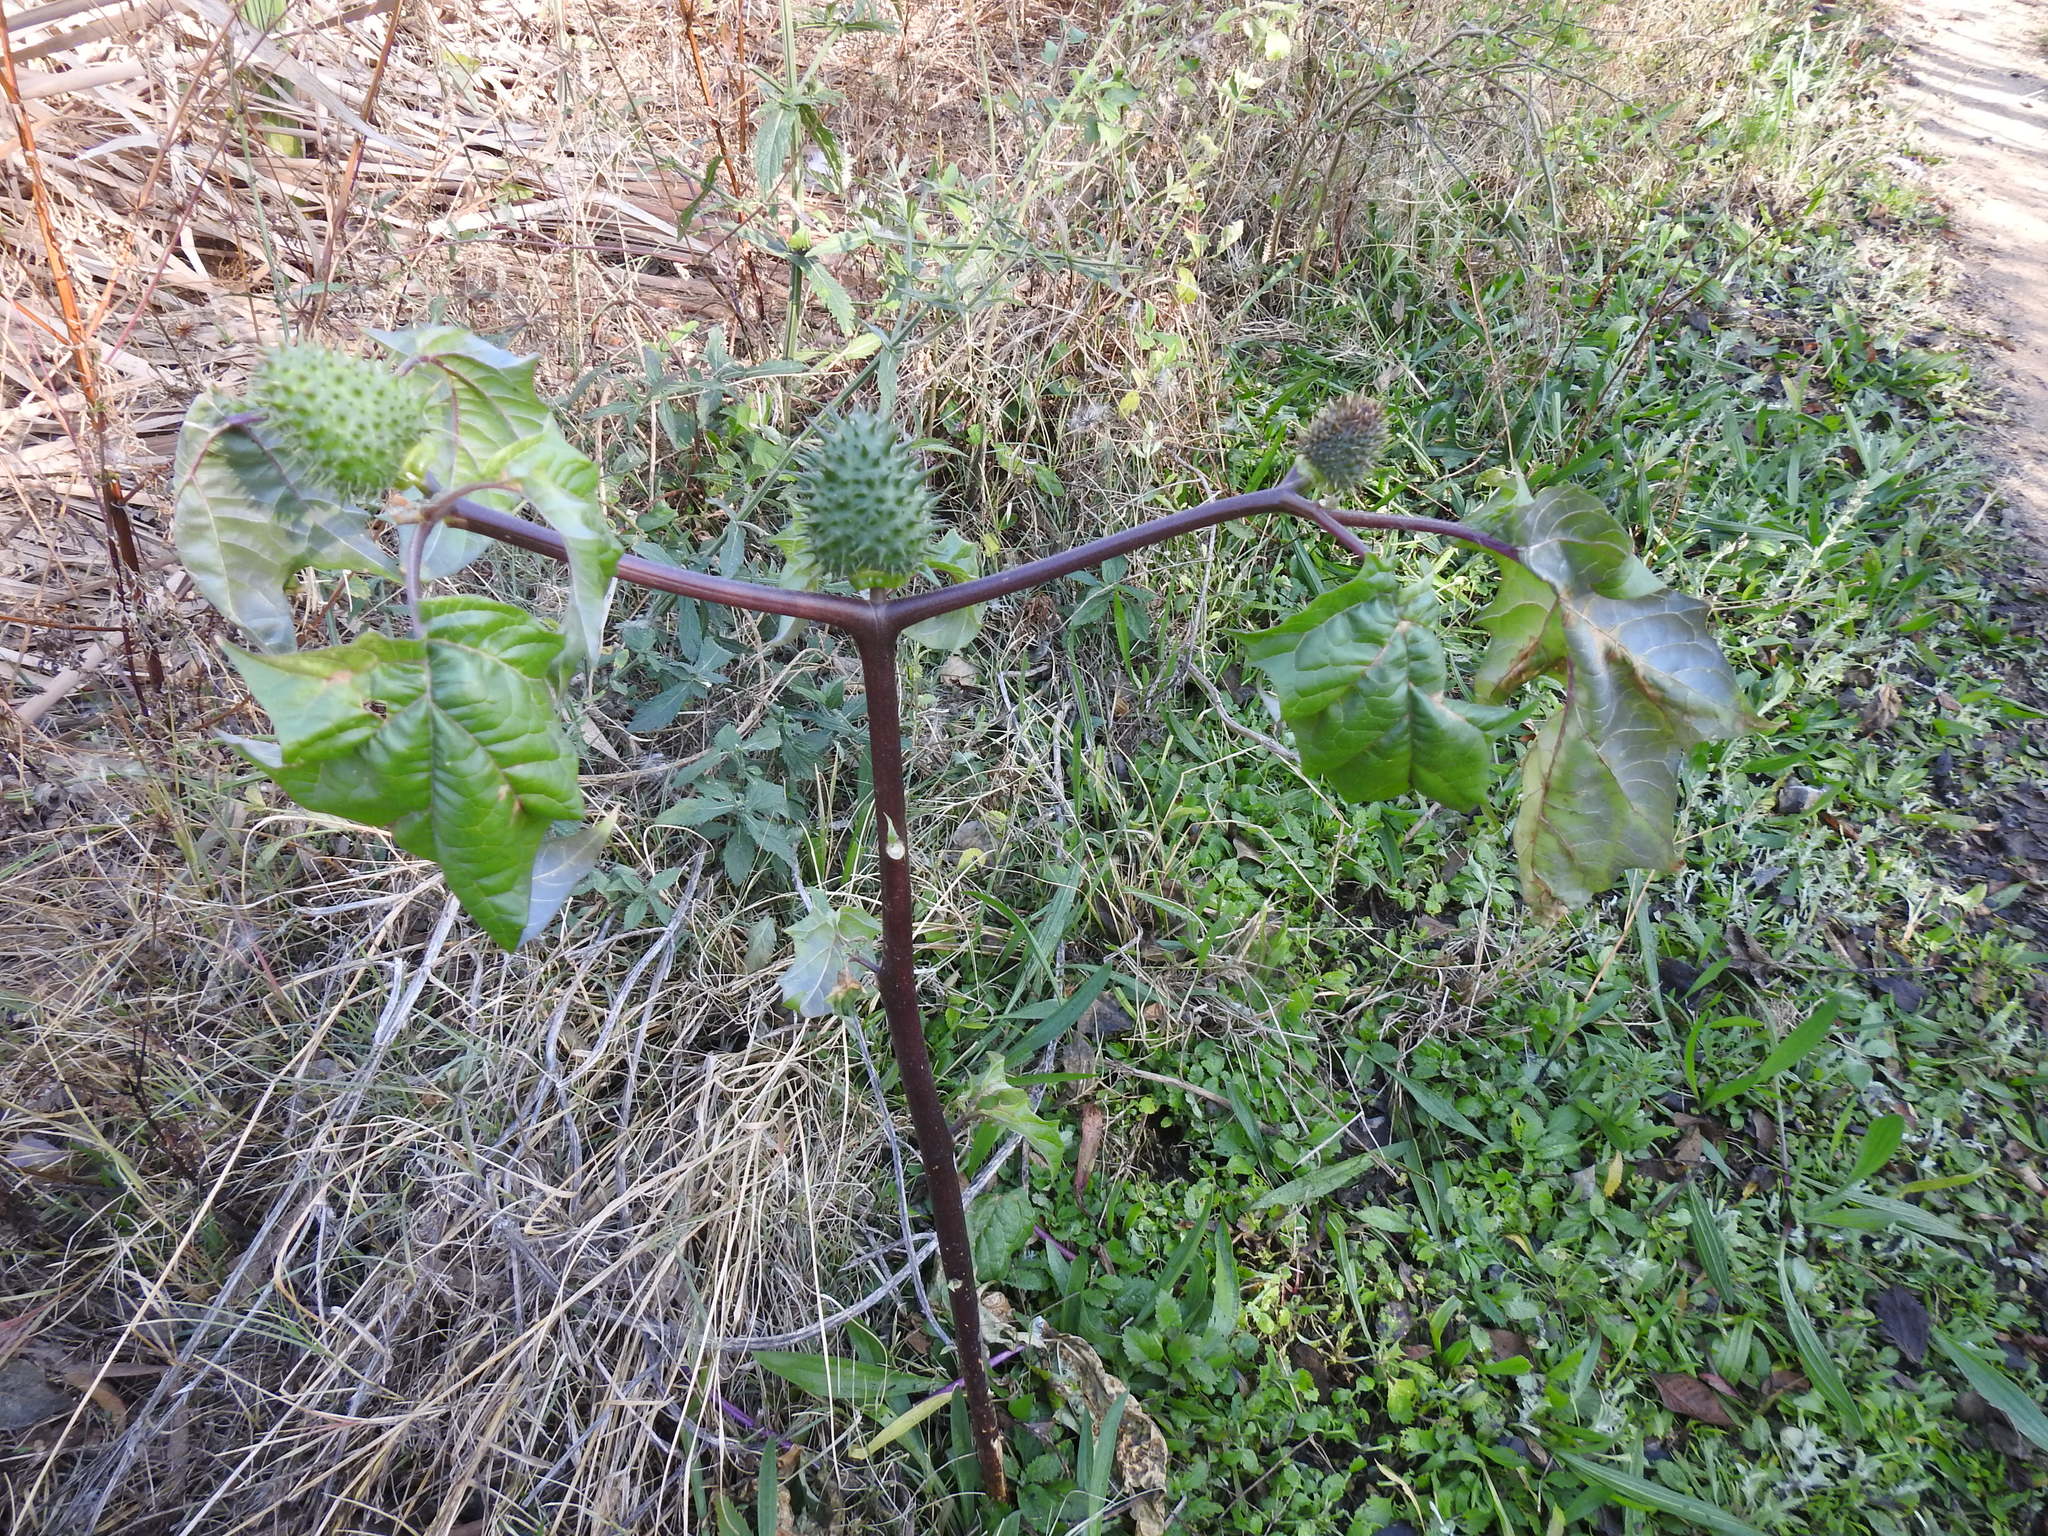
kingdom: Plantae
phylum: Tracheophyta
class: Magnoliopsida
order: Solanales
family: Solanaceae
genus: Datura
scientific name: Datura stramonium
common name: Thorn-apple
